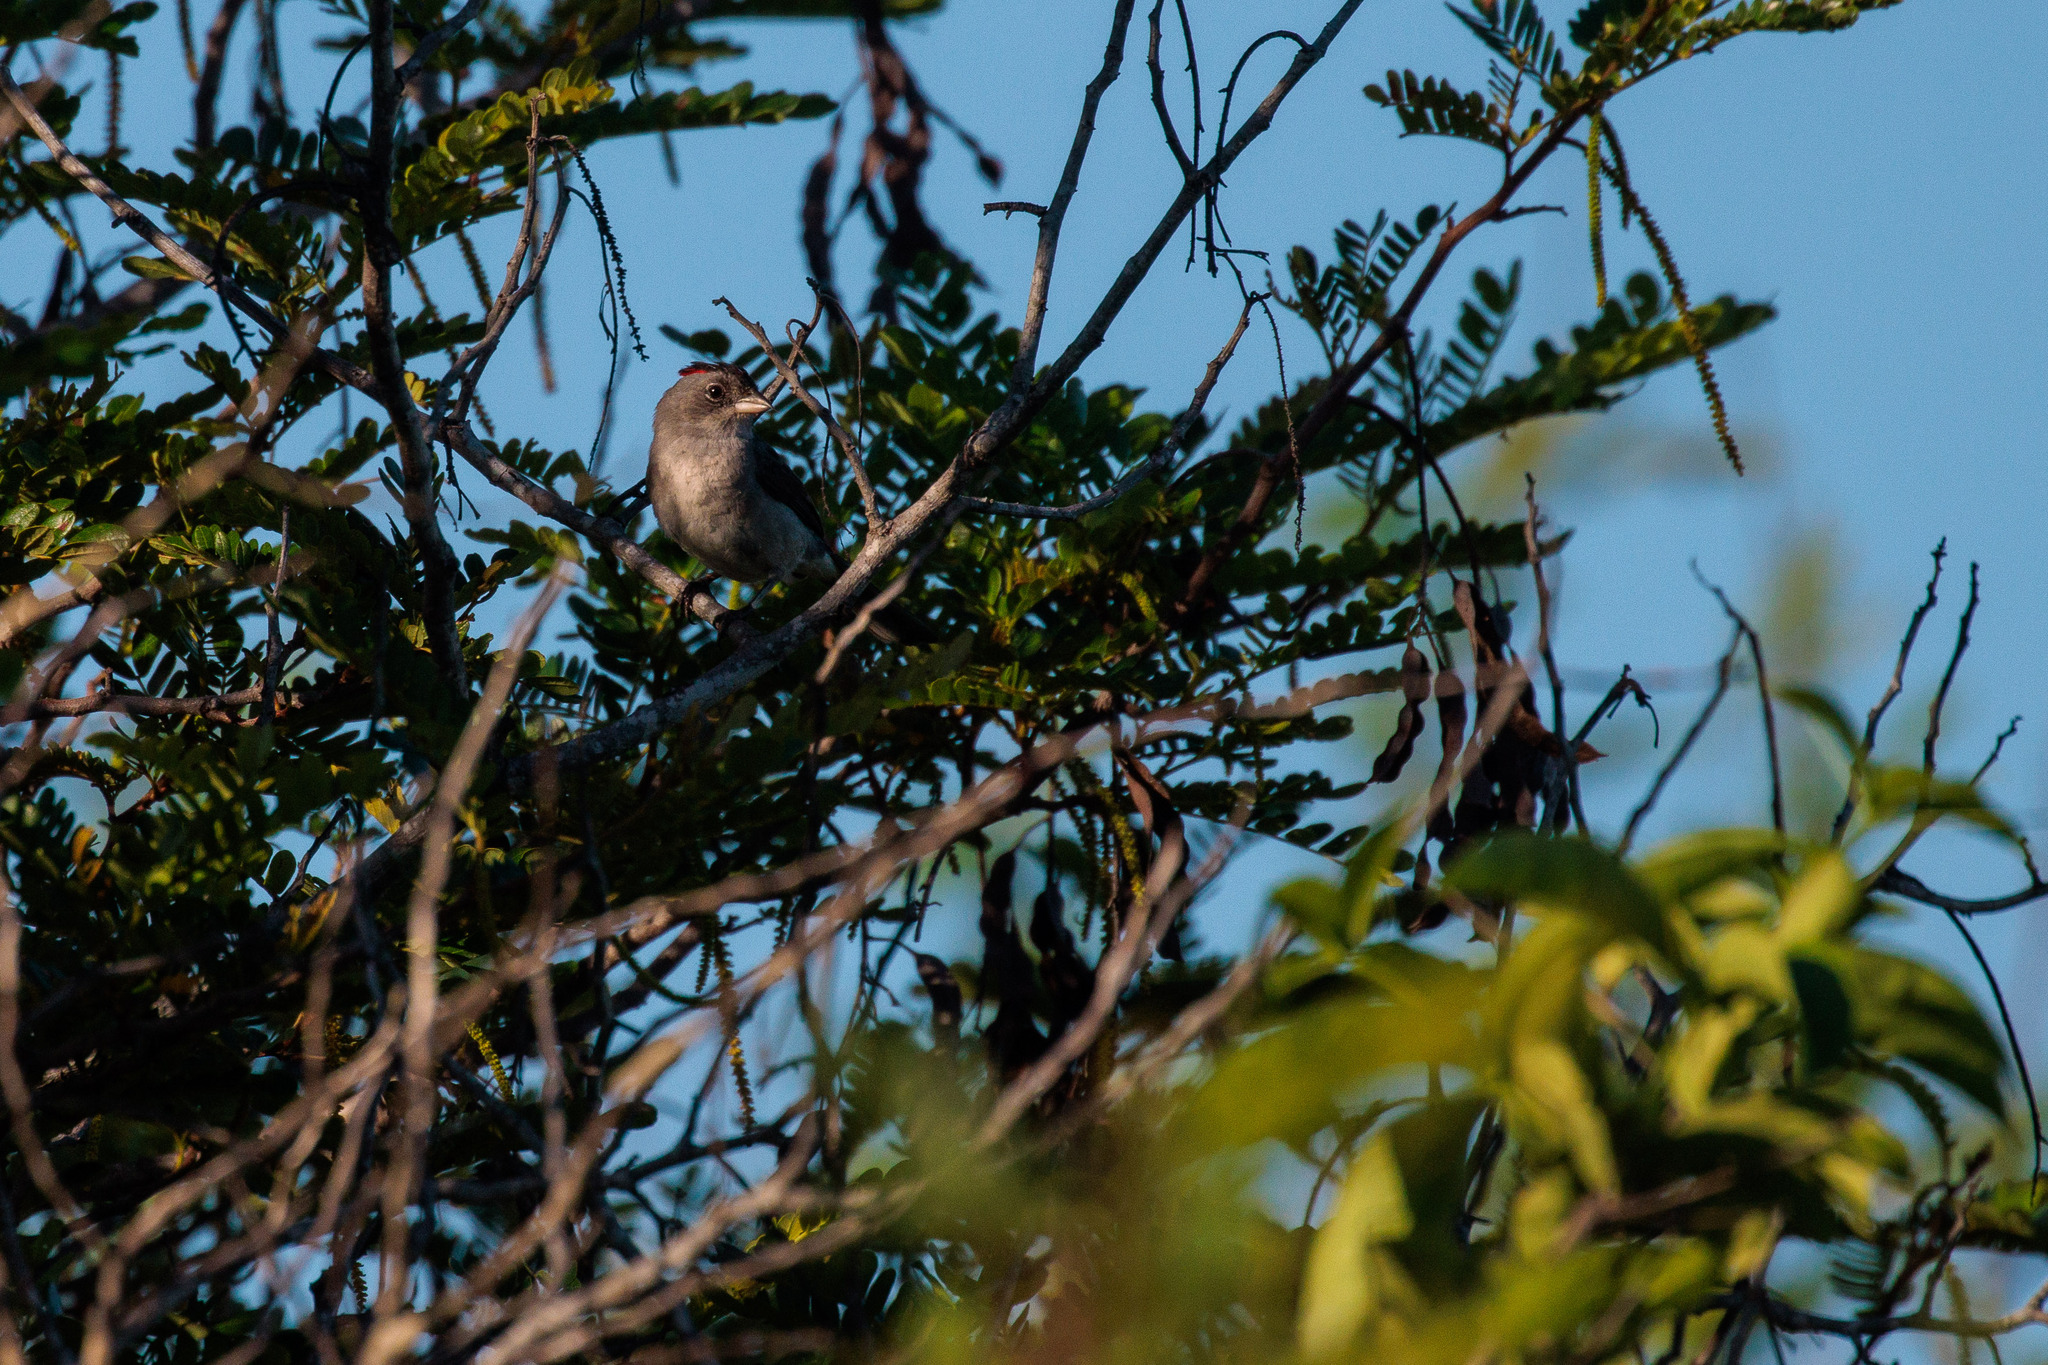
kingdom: Animalia
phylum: Chordata
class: Aves
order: Passeriformes
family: Thraupidae
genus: Coryphospingus
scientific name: Coryphospingus pileatus
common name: Grey pileated finch
